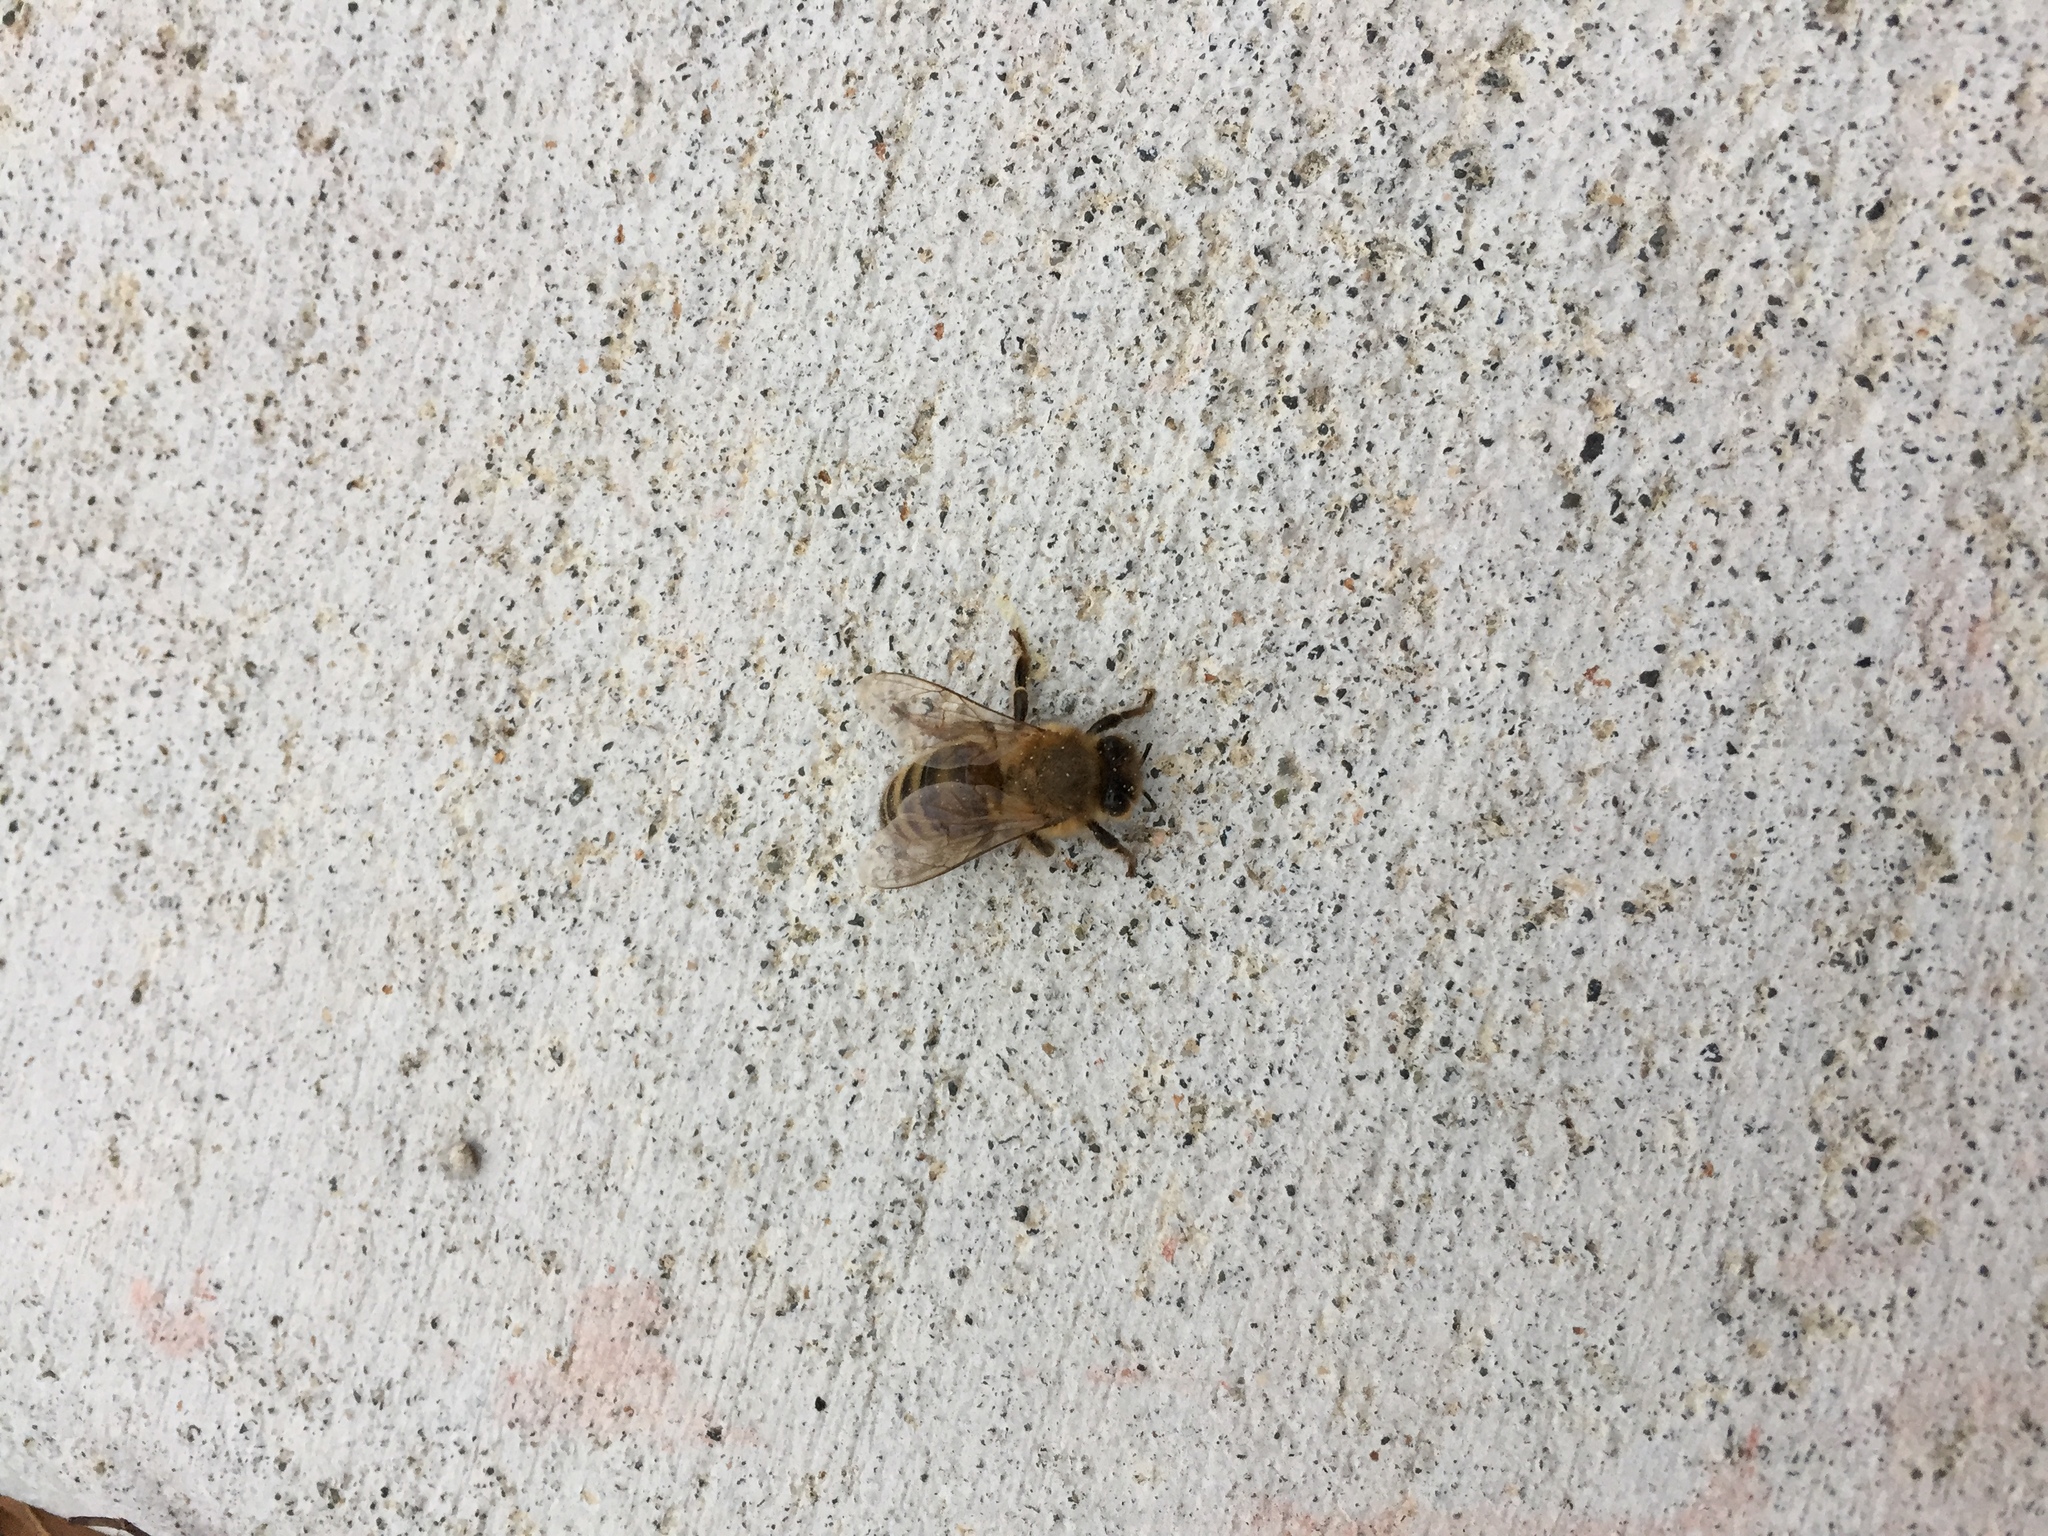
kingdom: Animalia
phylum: Arthropoda
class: Insecta
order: Hymenoptera
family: Apidae
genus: Apis
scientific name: Apis mellifera
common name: Honey bee
